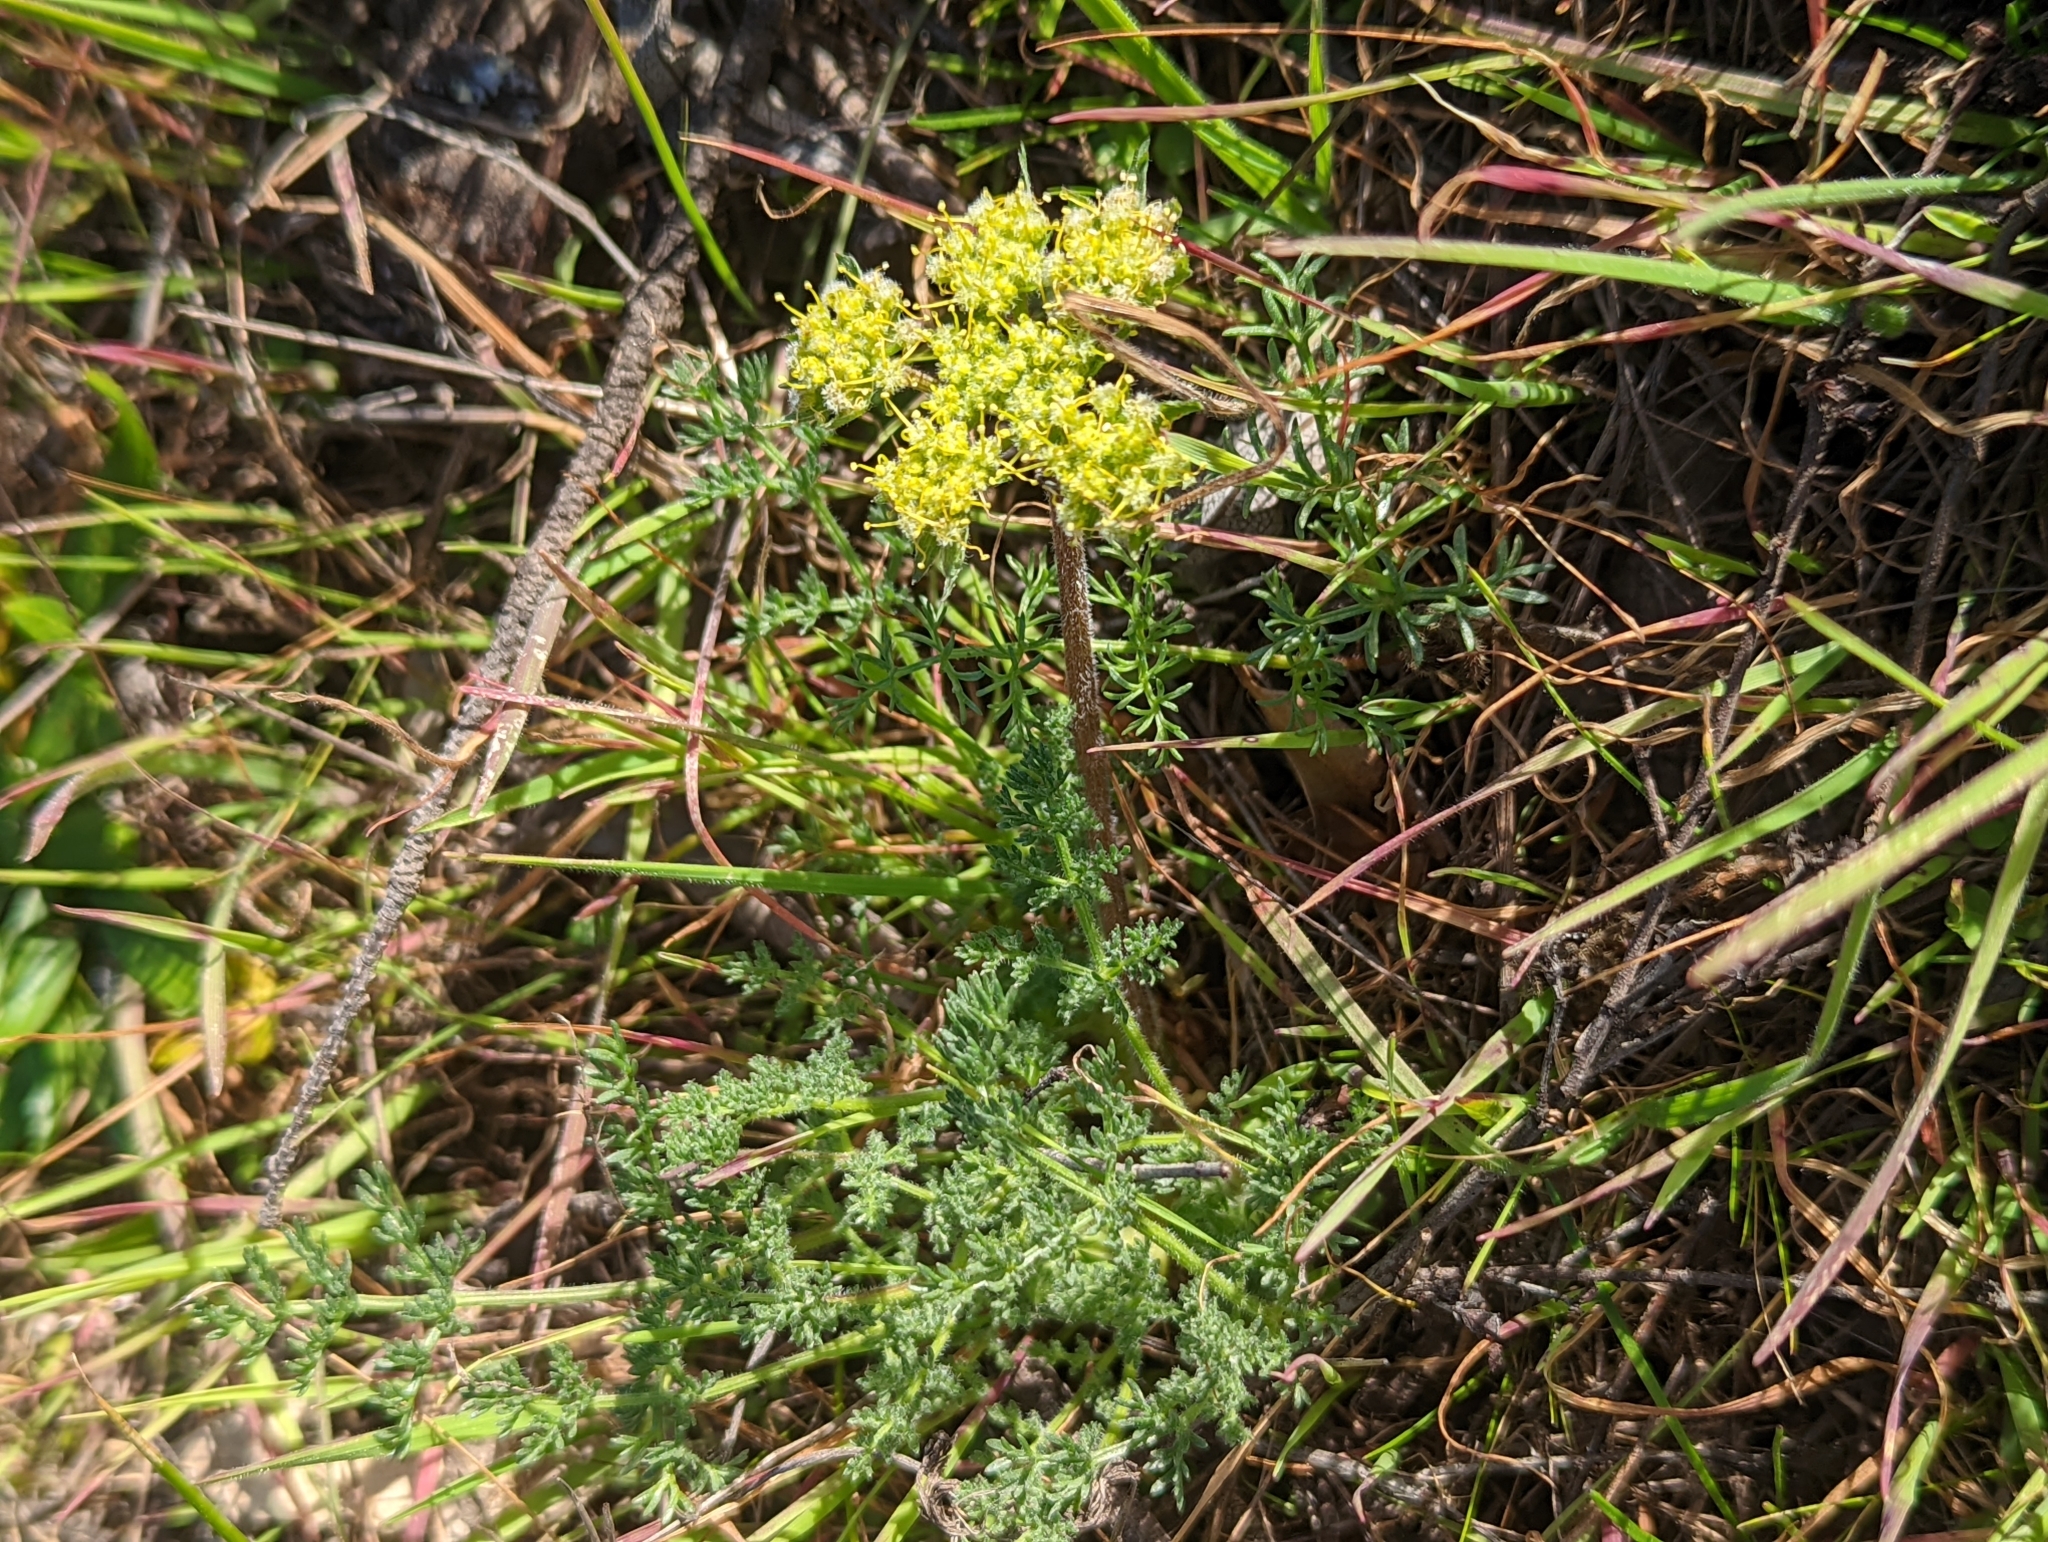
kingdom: Plantae
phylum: Tracheophyta
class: Magnoliopsida
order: Apiales
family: Apiaceae
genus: Lomatium
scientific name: Lomatium dasycarpum
